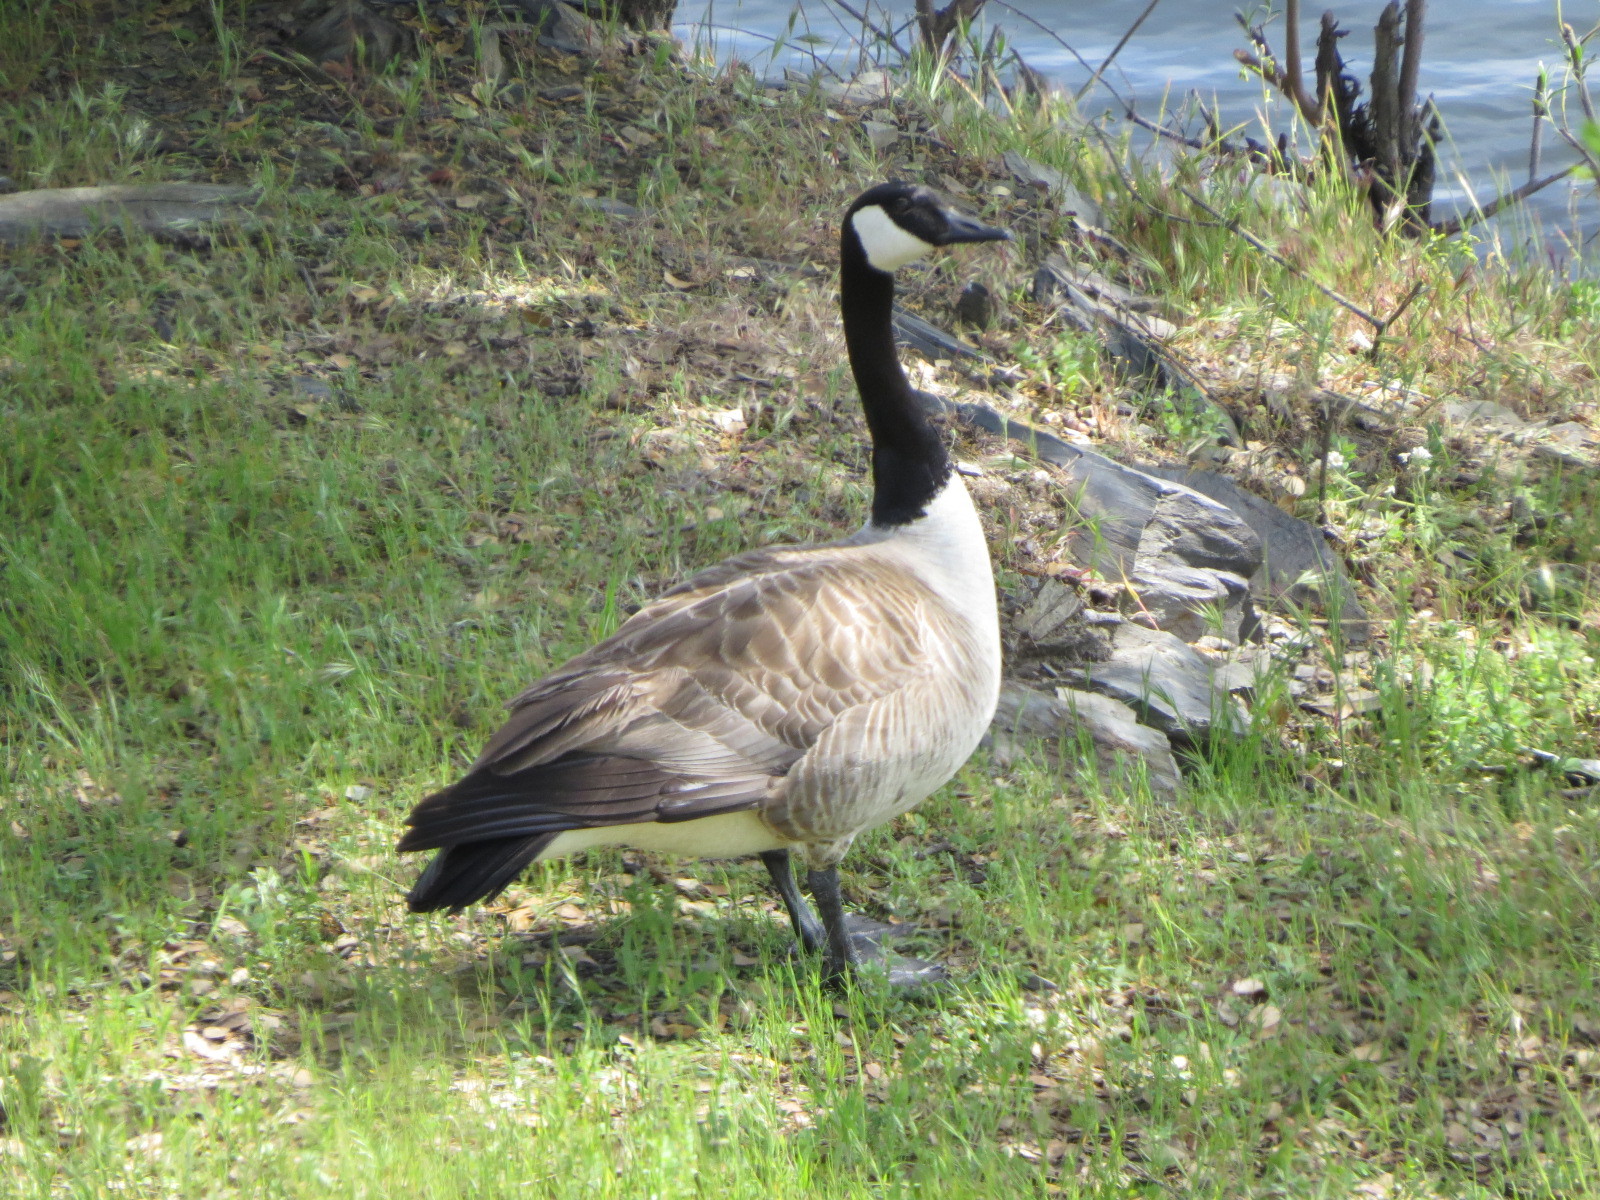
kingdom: Animalia
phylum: Chordata
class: Aves
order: Anseriformes
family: Anatidae
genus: Branta
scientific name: Branta canadensis
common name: Canada goose
